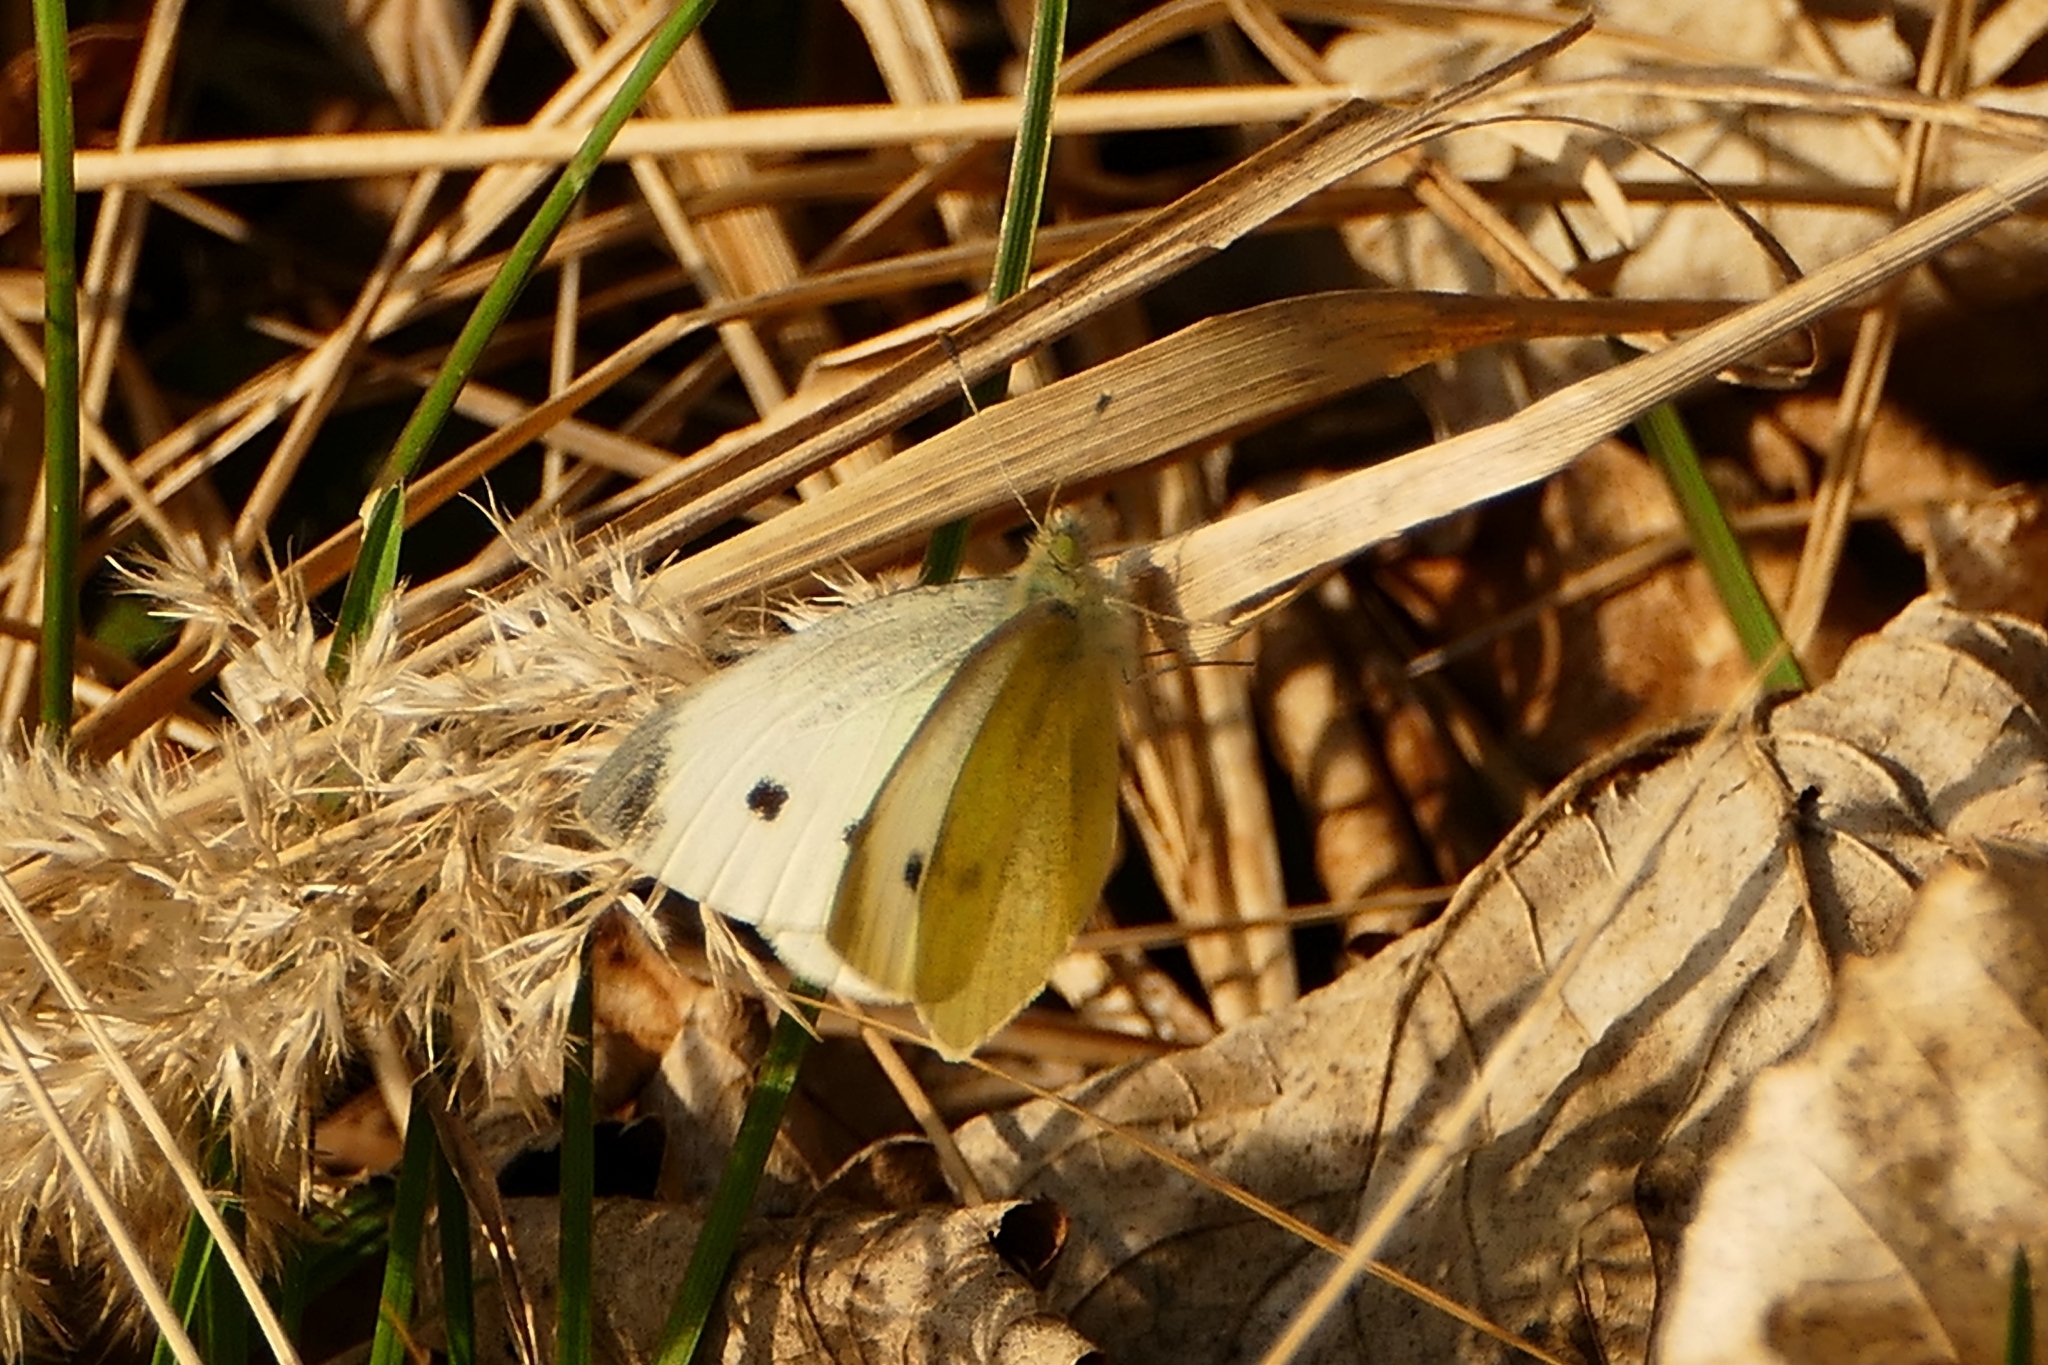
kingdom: Animalia
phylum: Arthropoda
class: Insecta
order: Lepidoptera
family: Pieridae
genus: Pieris
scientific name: Pieris rapae
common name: Small white
